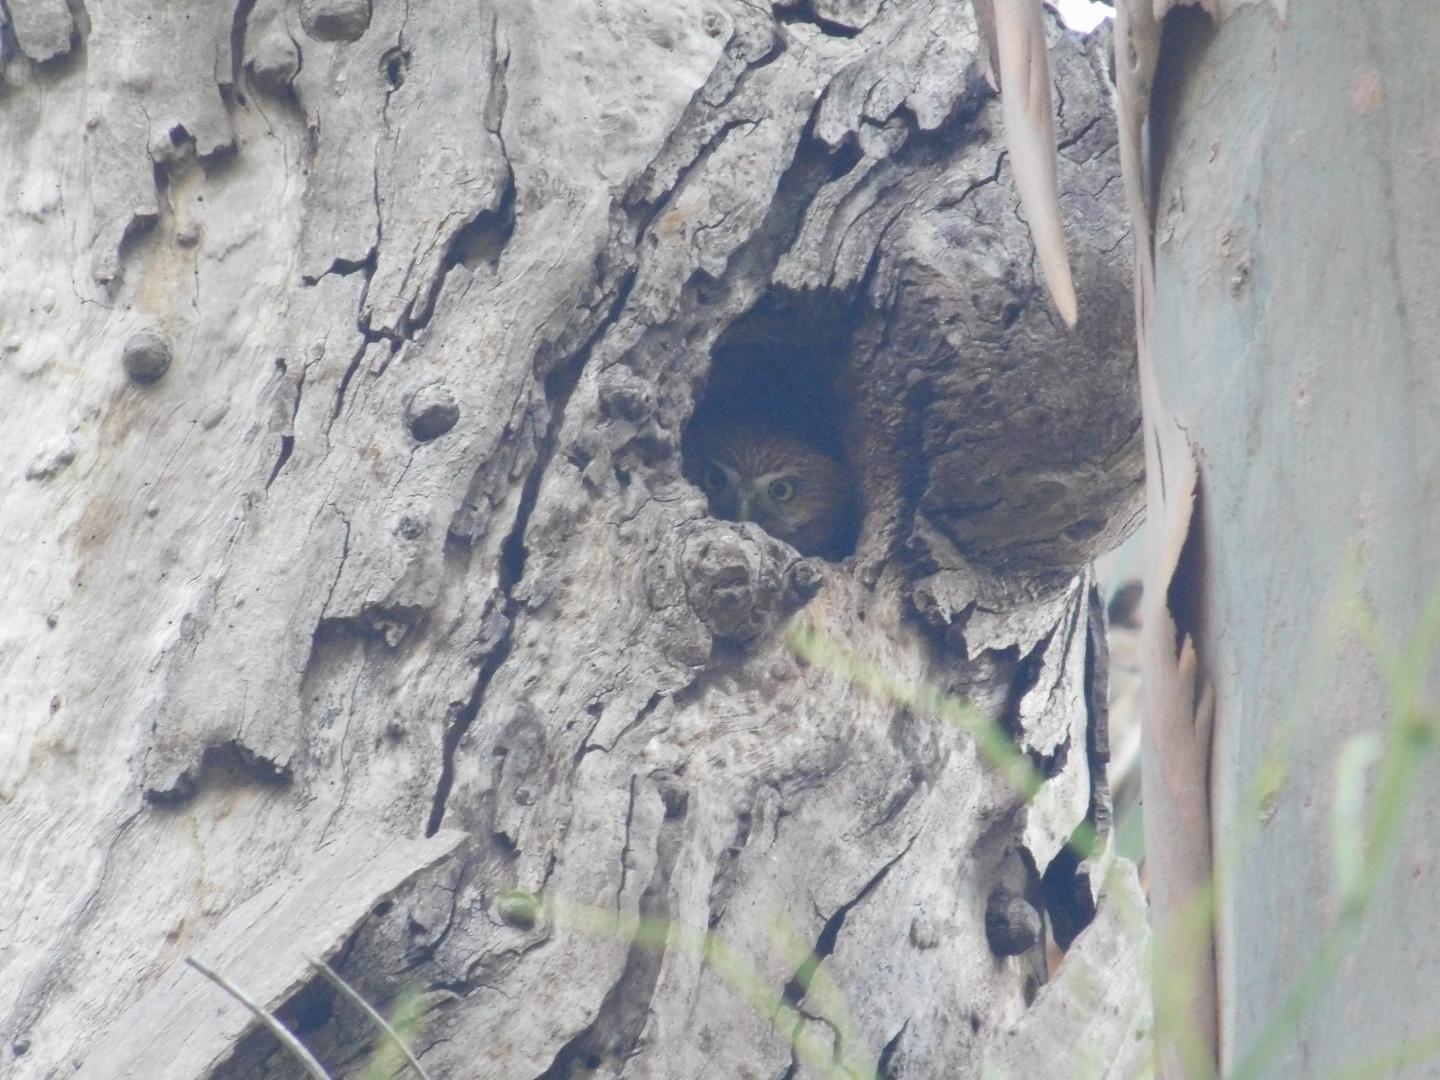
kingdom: Animalia
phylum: Chordata
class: Aves
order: Strigiformes
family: Strigidae
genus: Glaucidium
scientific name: Glaucidium brasilianum
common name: Ferruginous pygmy-owl
